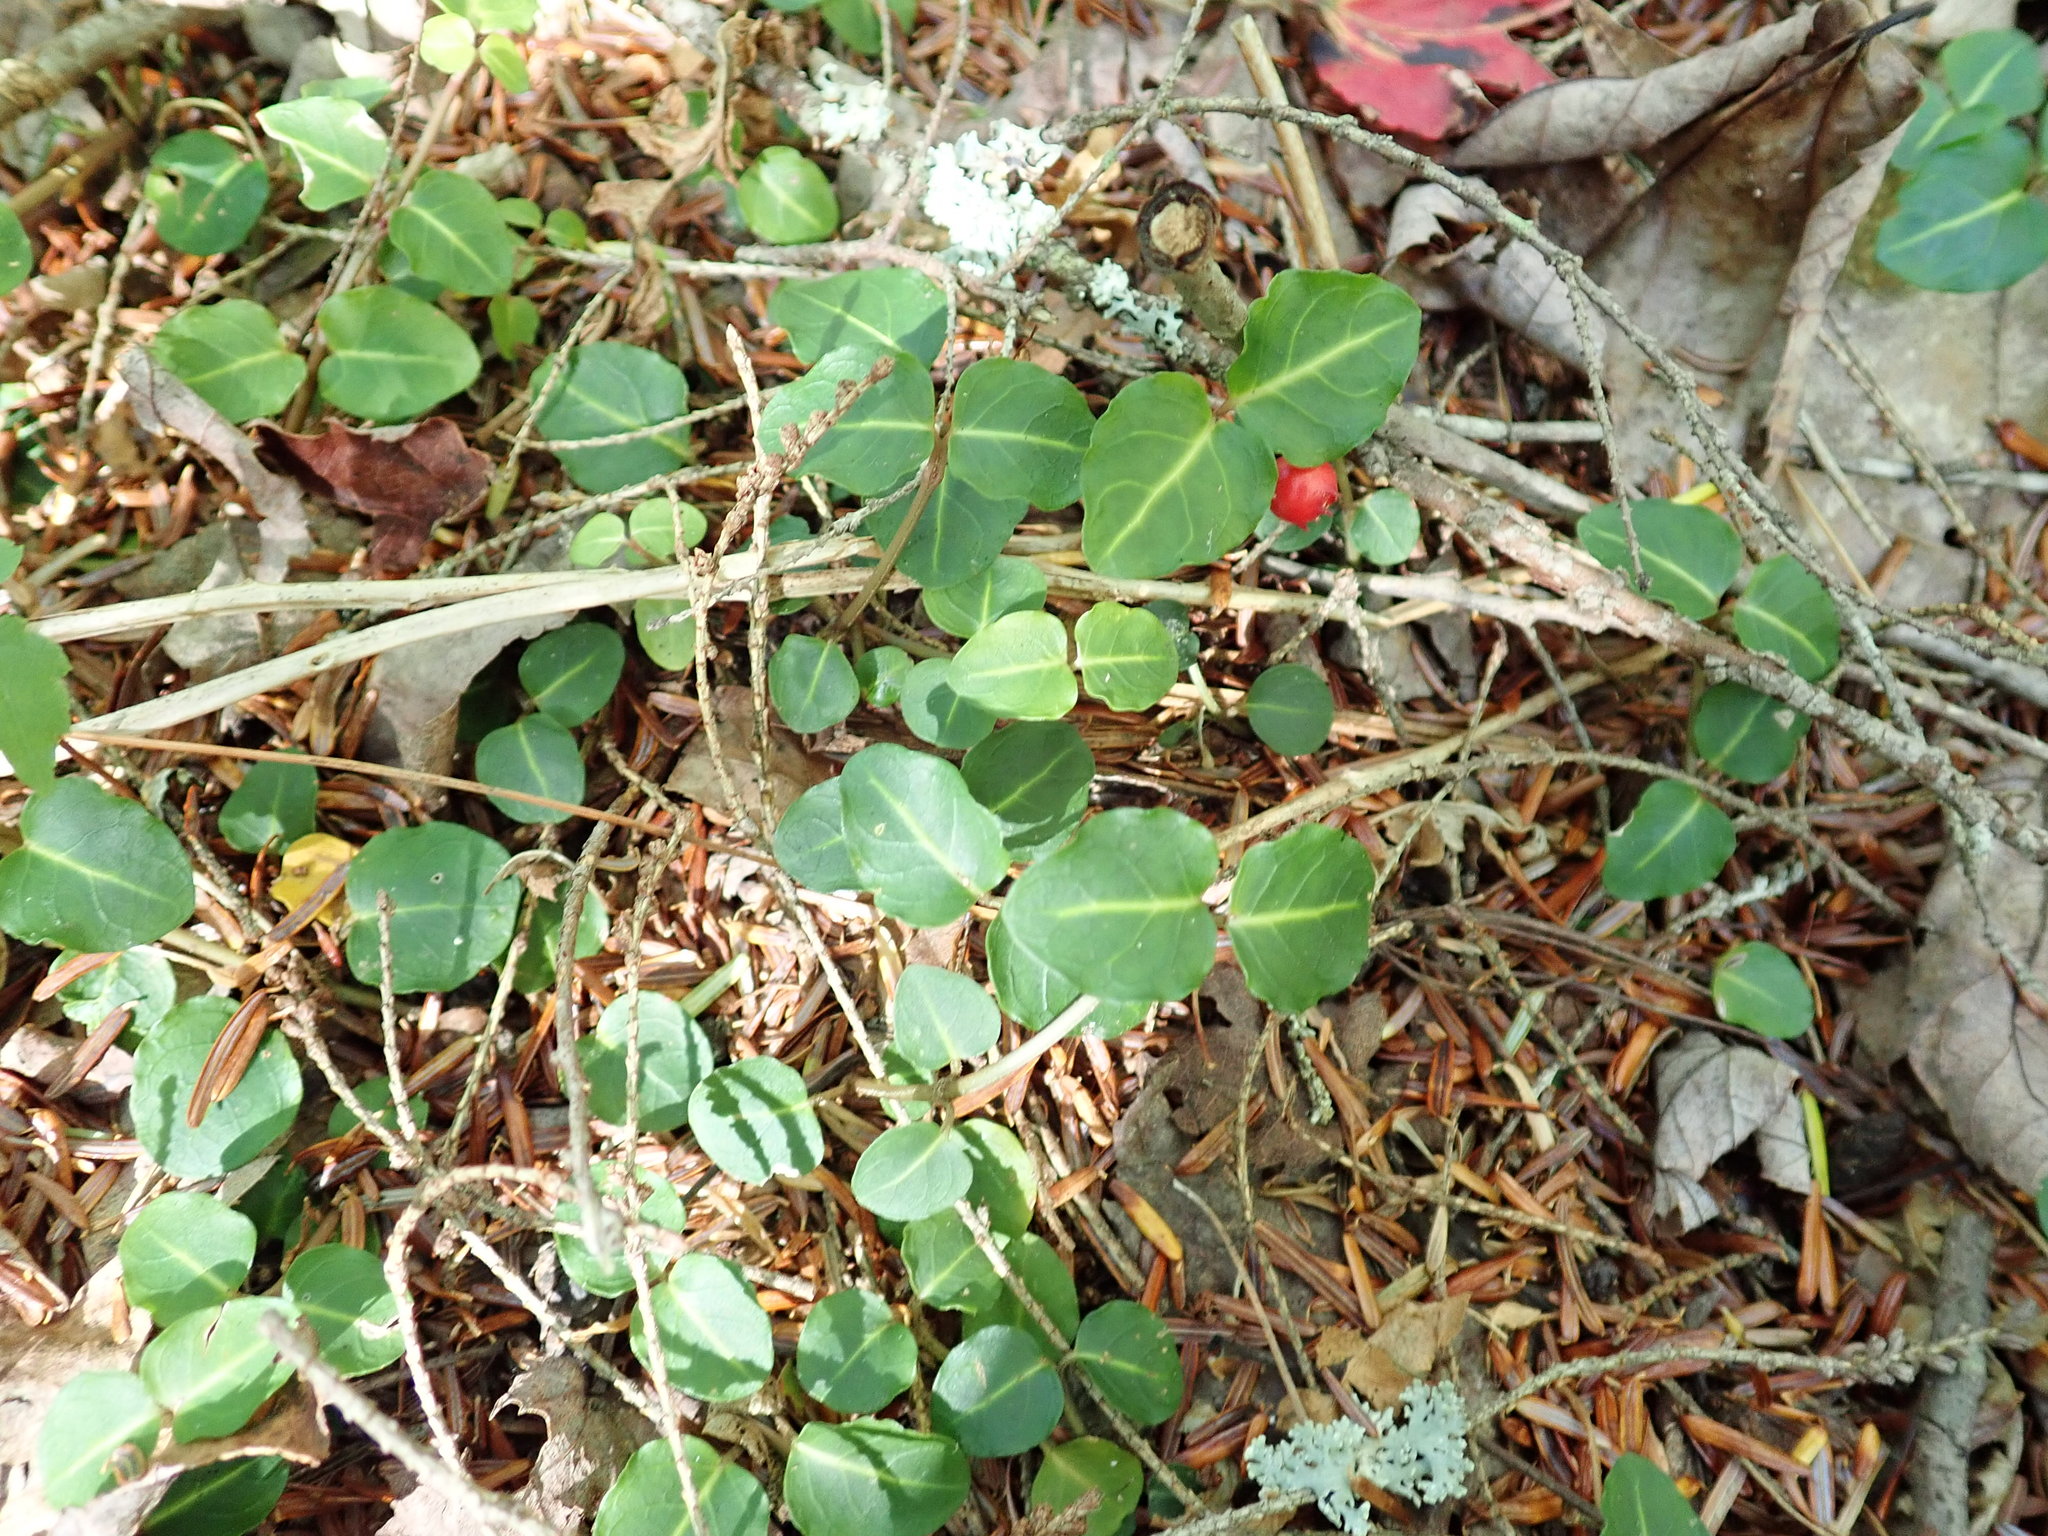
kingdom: Plantae
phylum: Tracheophyta
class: Magnoliopsida
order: Gentianales
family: Rubiaceae
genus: Mitchella
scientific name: Mitchella repens
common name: Partridge-berry
